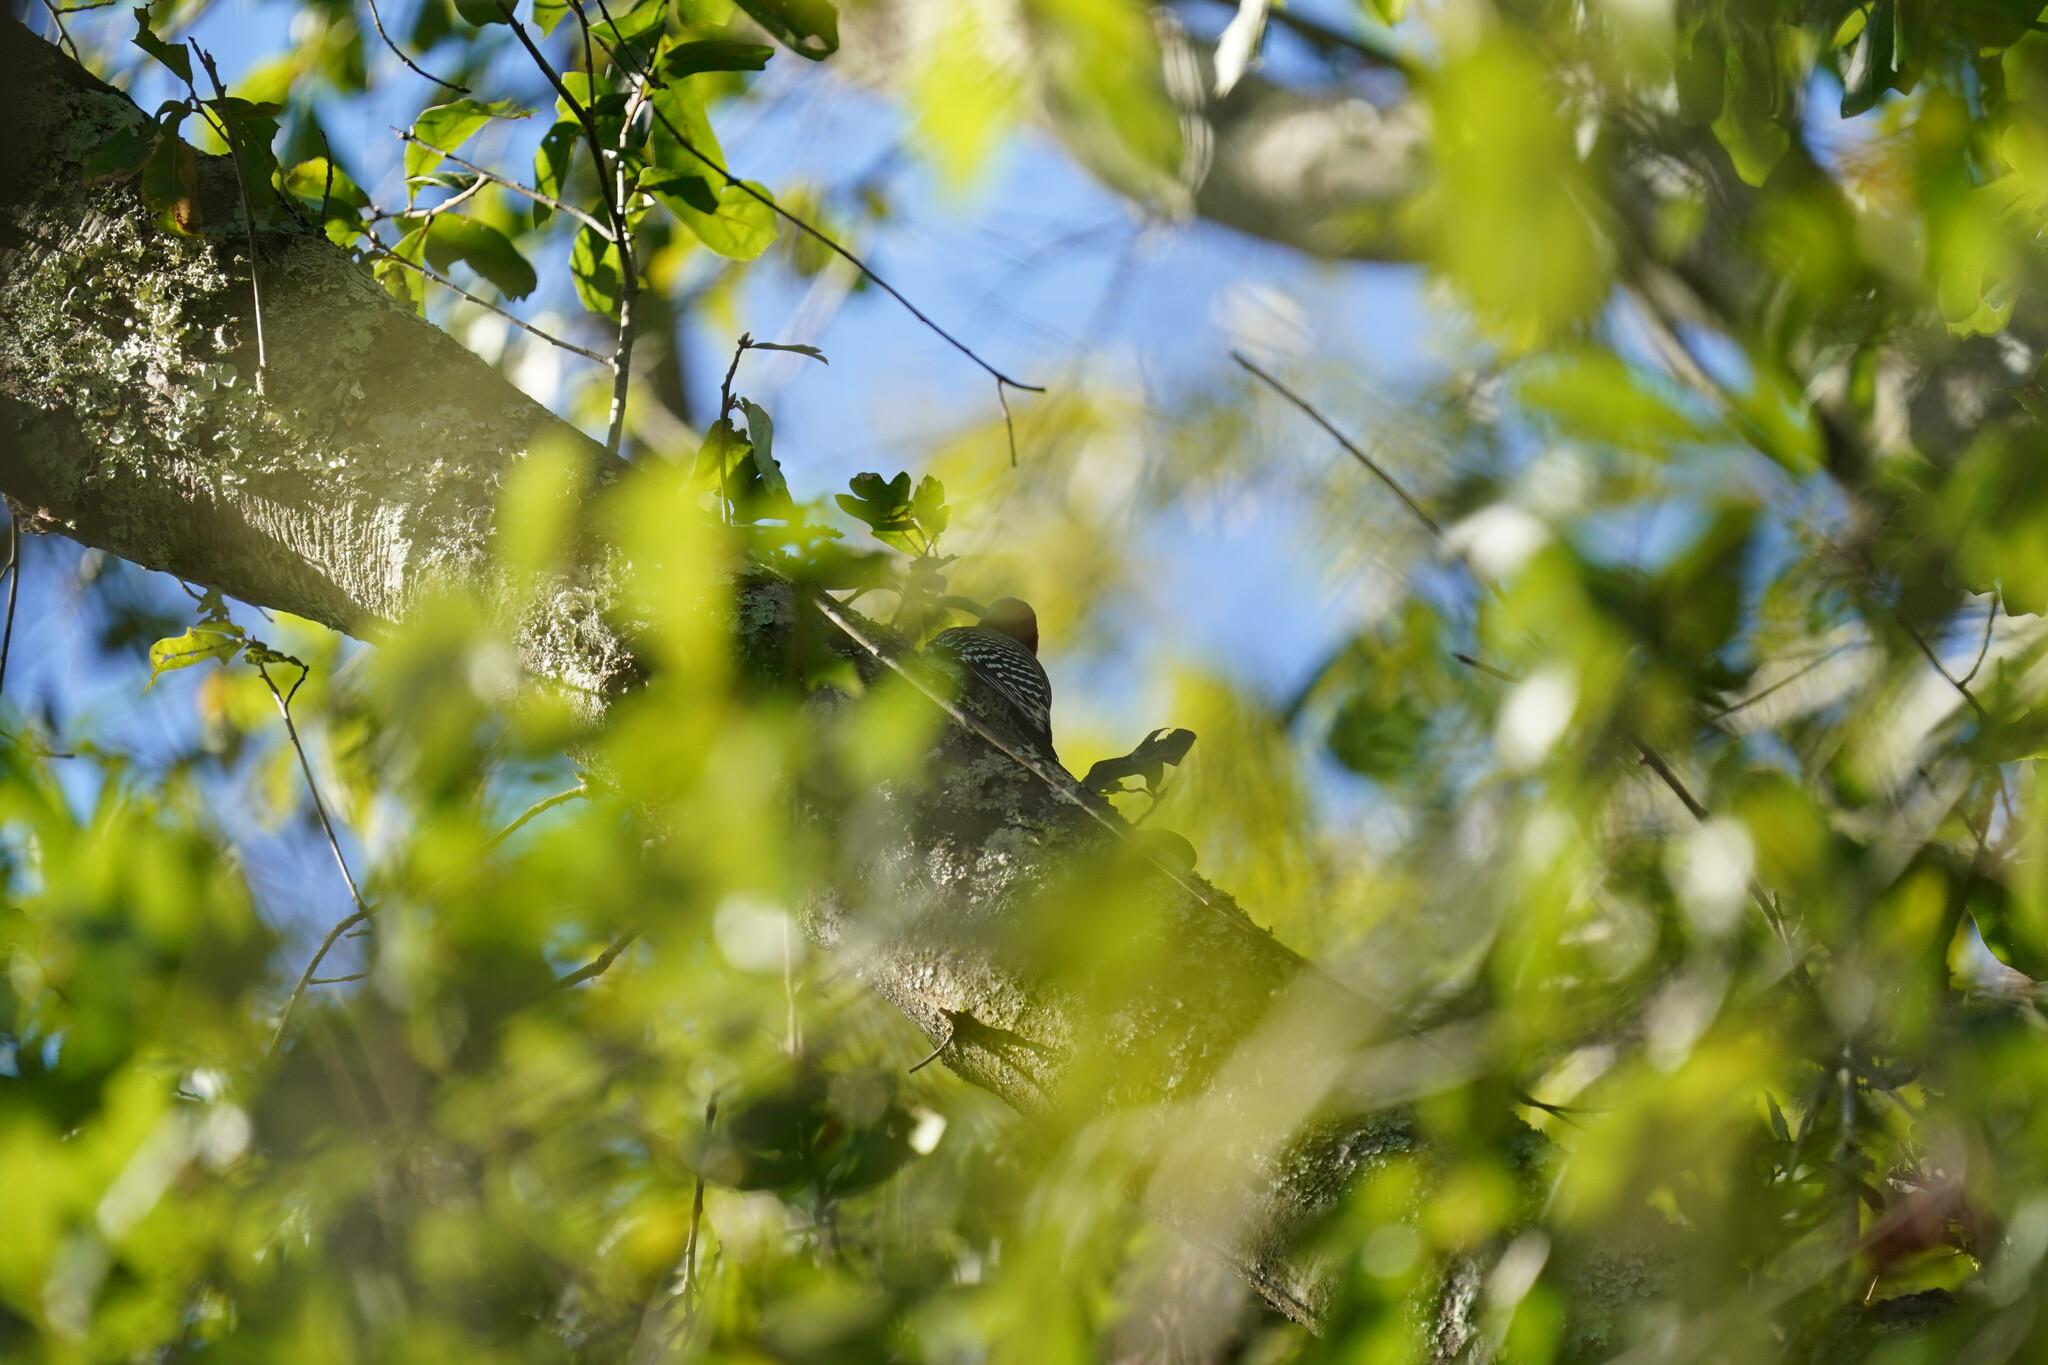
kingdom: Animalia
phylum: Chordata
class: Aves
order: Piciformes
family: Picidae
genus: Melanerpes
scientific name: Melanerpes carolinus
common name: Red-bellied woodpecker
